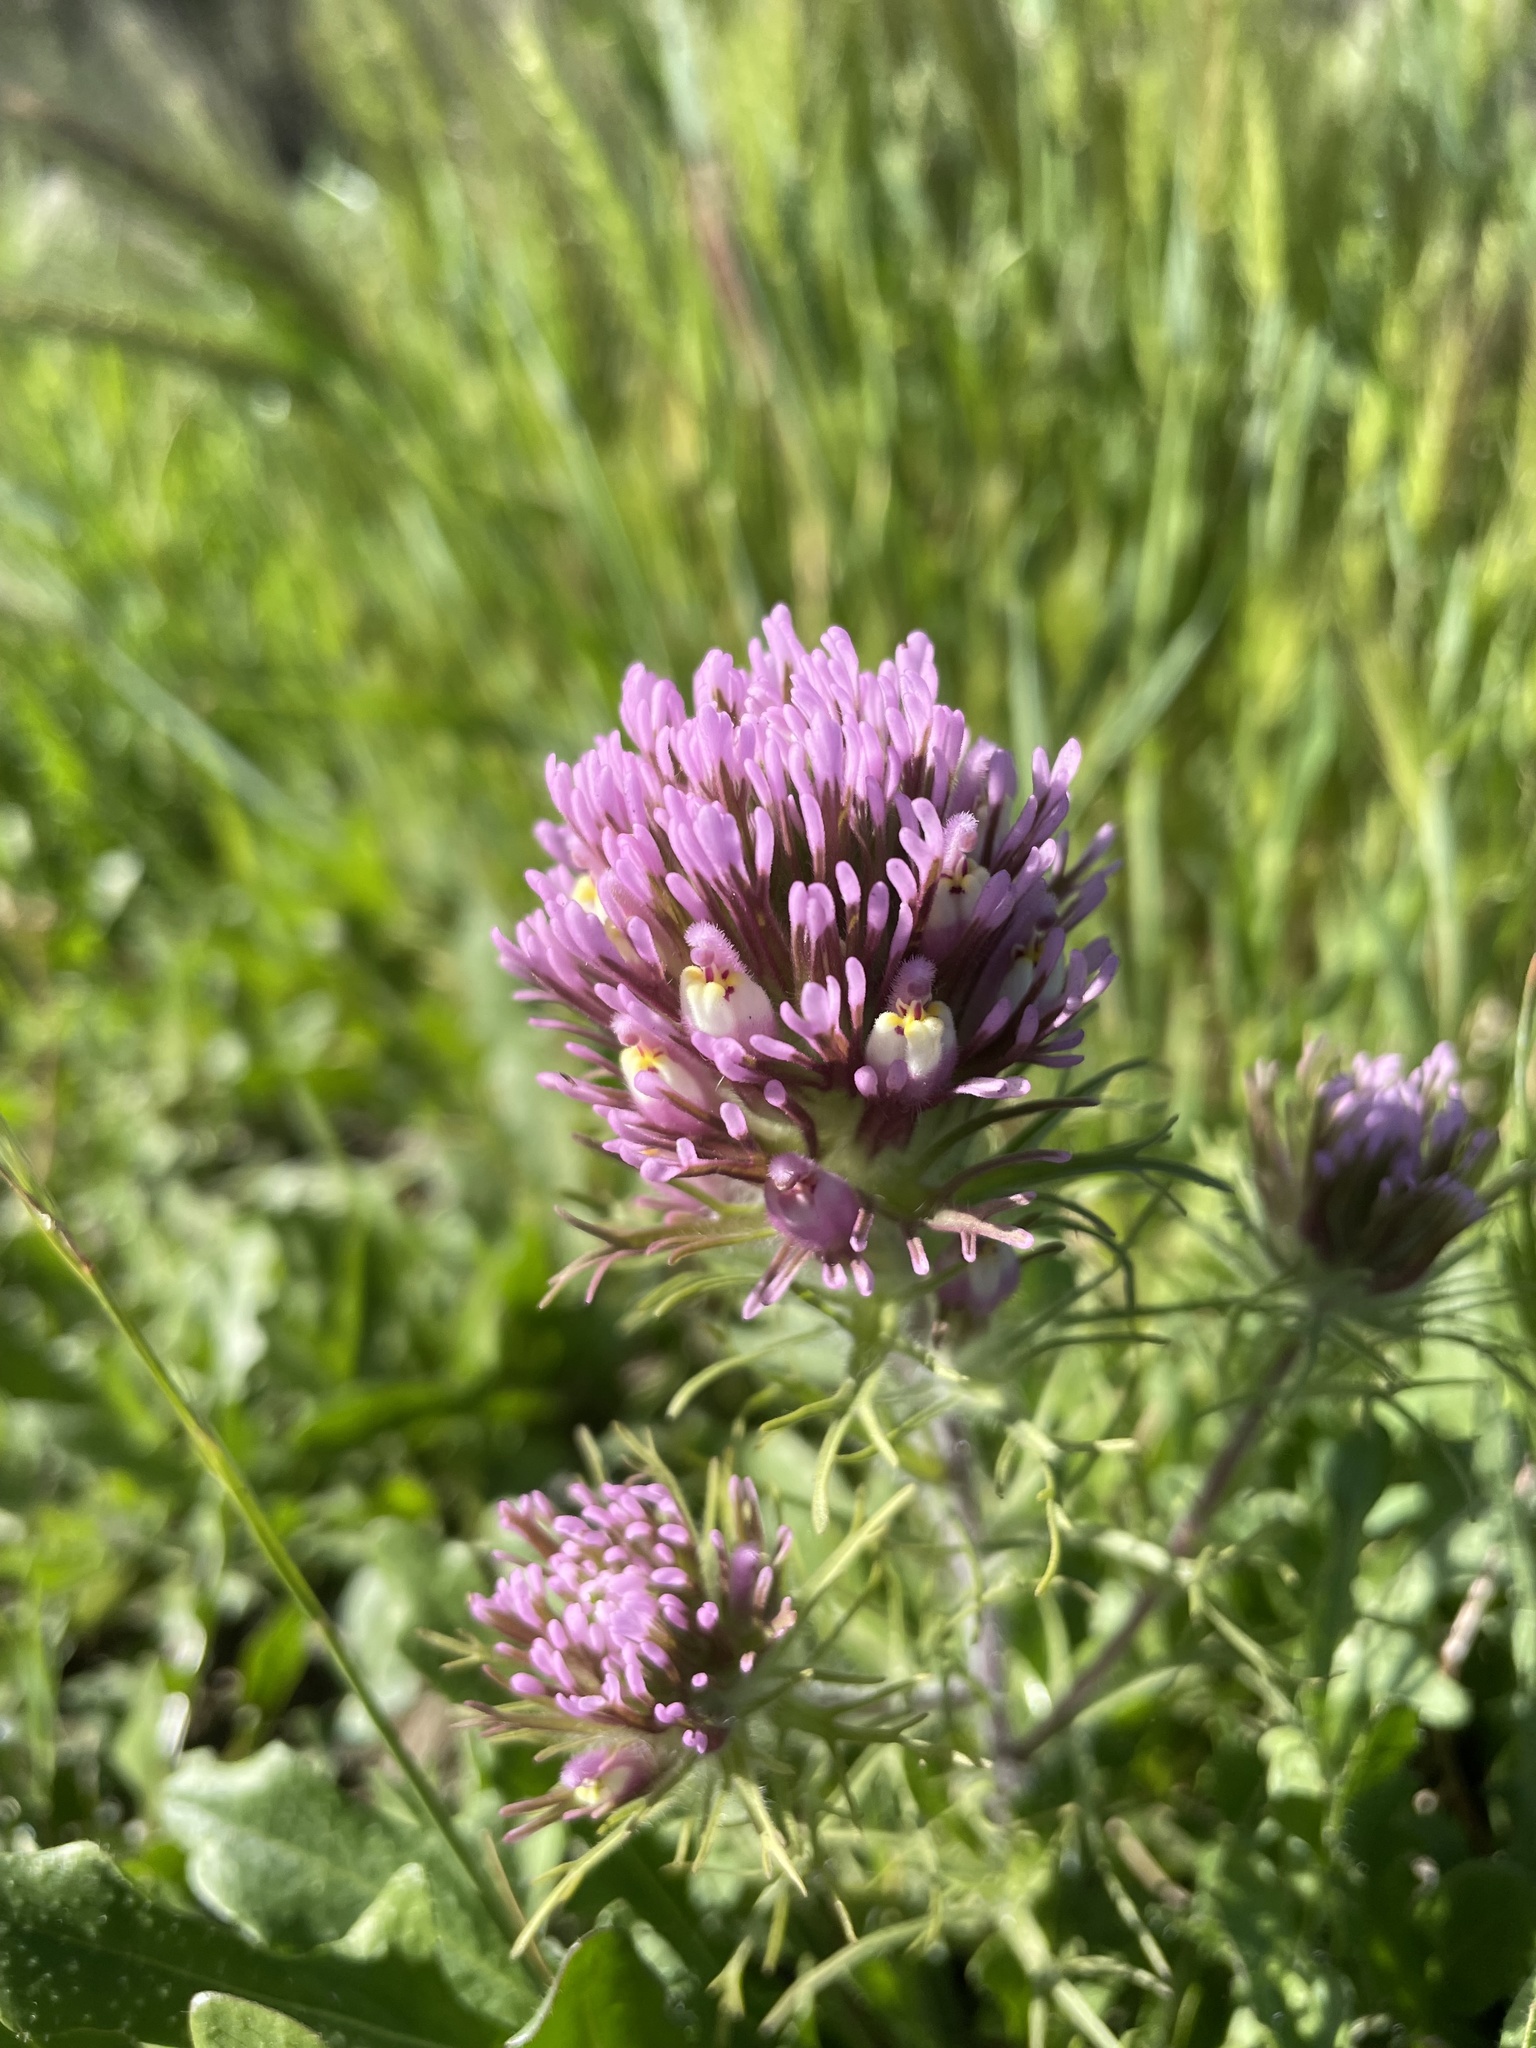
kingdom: Plantae
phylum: Tracheophyta
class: Magnoliopsida
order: Lamiales
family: Orobanchaceae
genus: Castilleja
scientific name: Castilleja exserta
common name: Purple owl-clover
